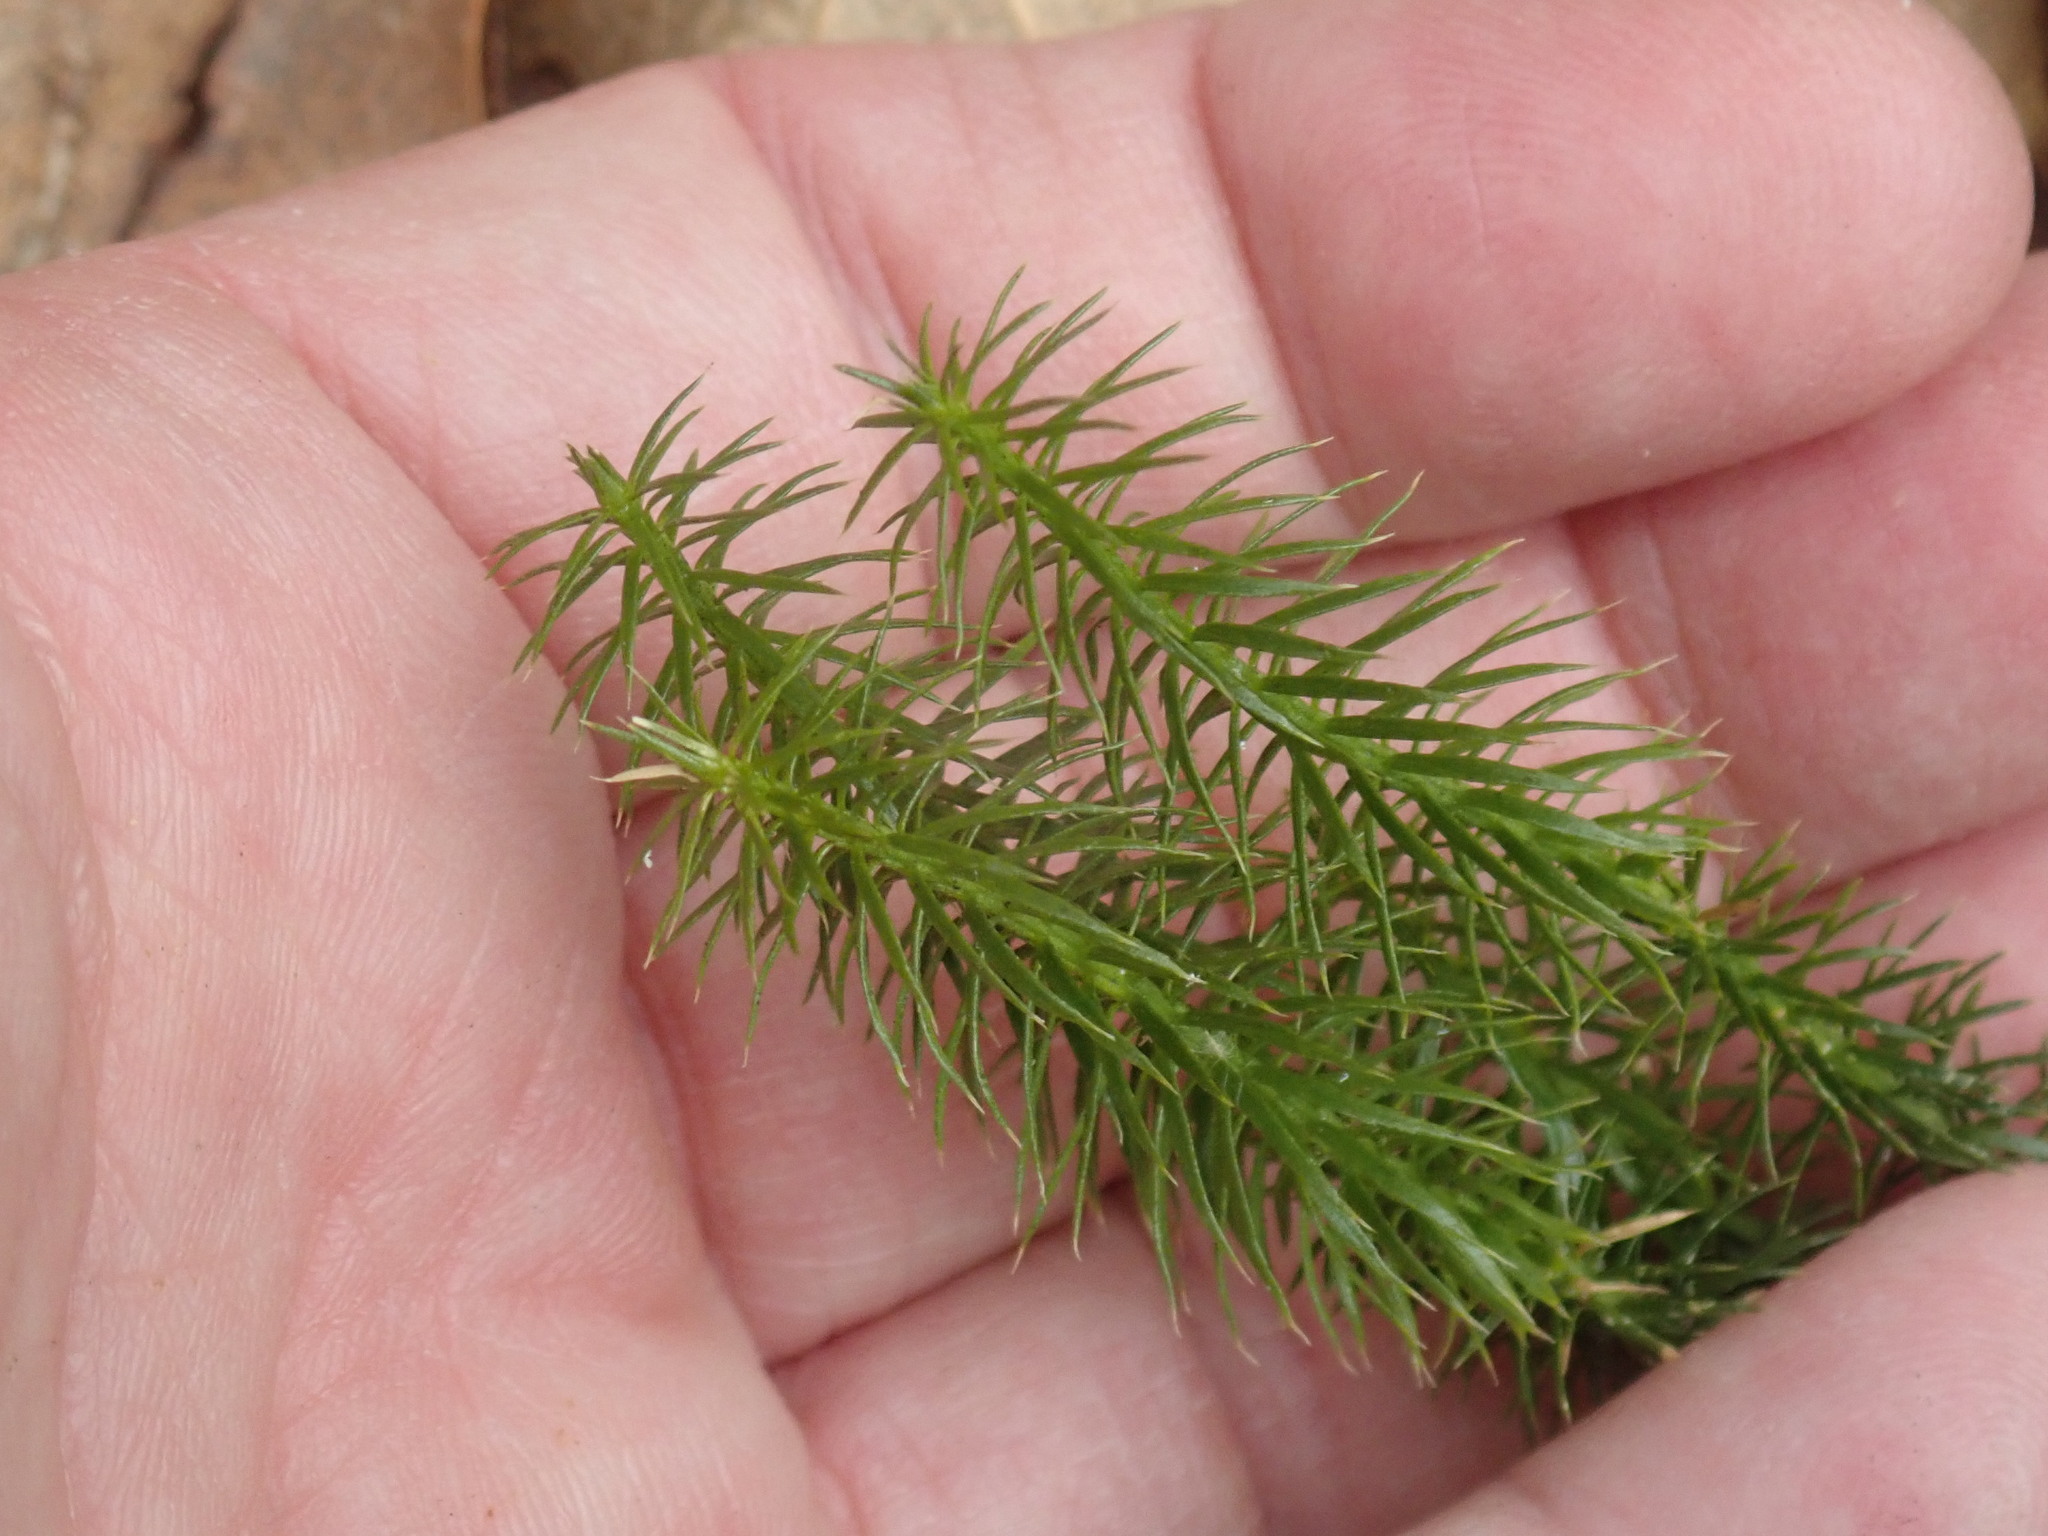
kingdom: Plantae
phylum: Tracheophyta
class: Lycopodiopsida
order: Lycopodiales
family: Lycopodiaceae
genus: Spinulum
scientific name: Spinulum annotinum
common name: Interrupted club-moss
